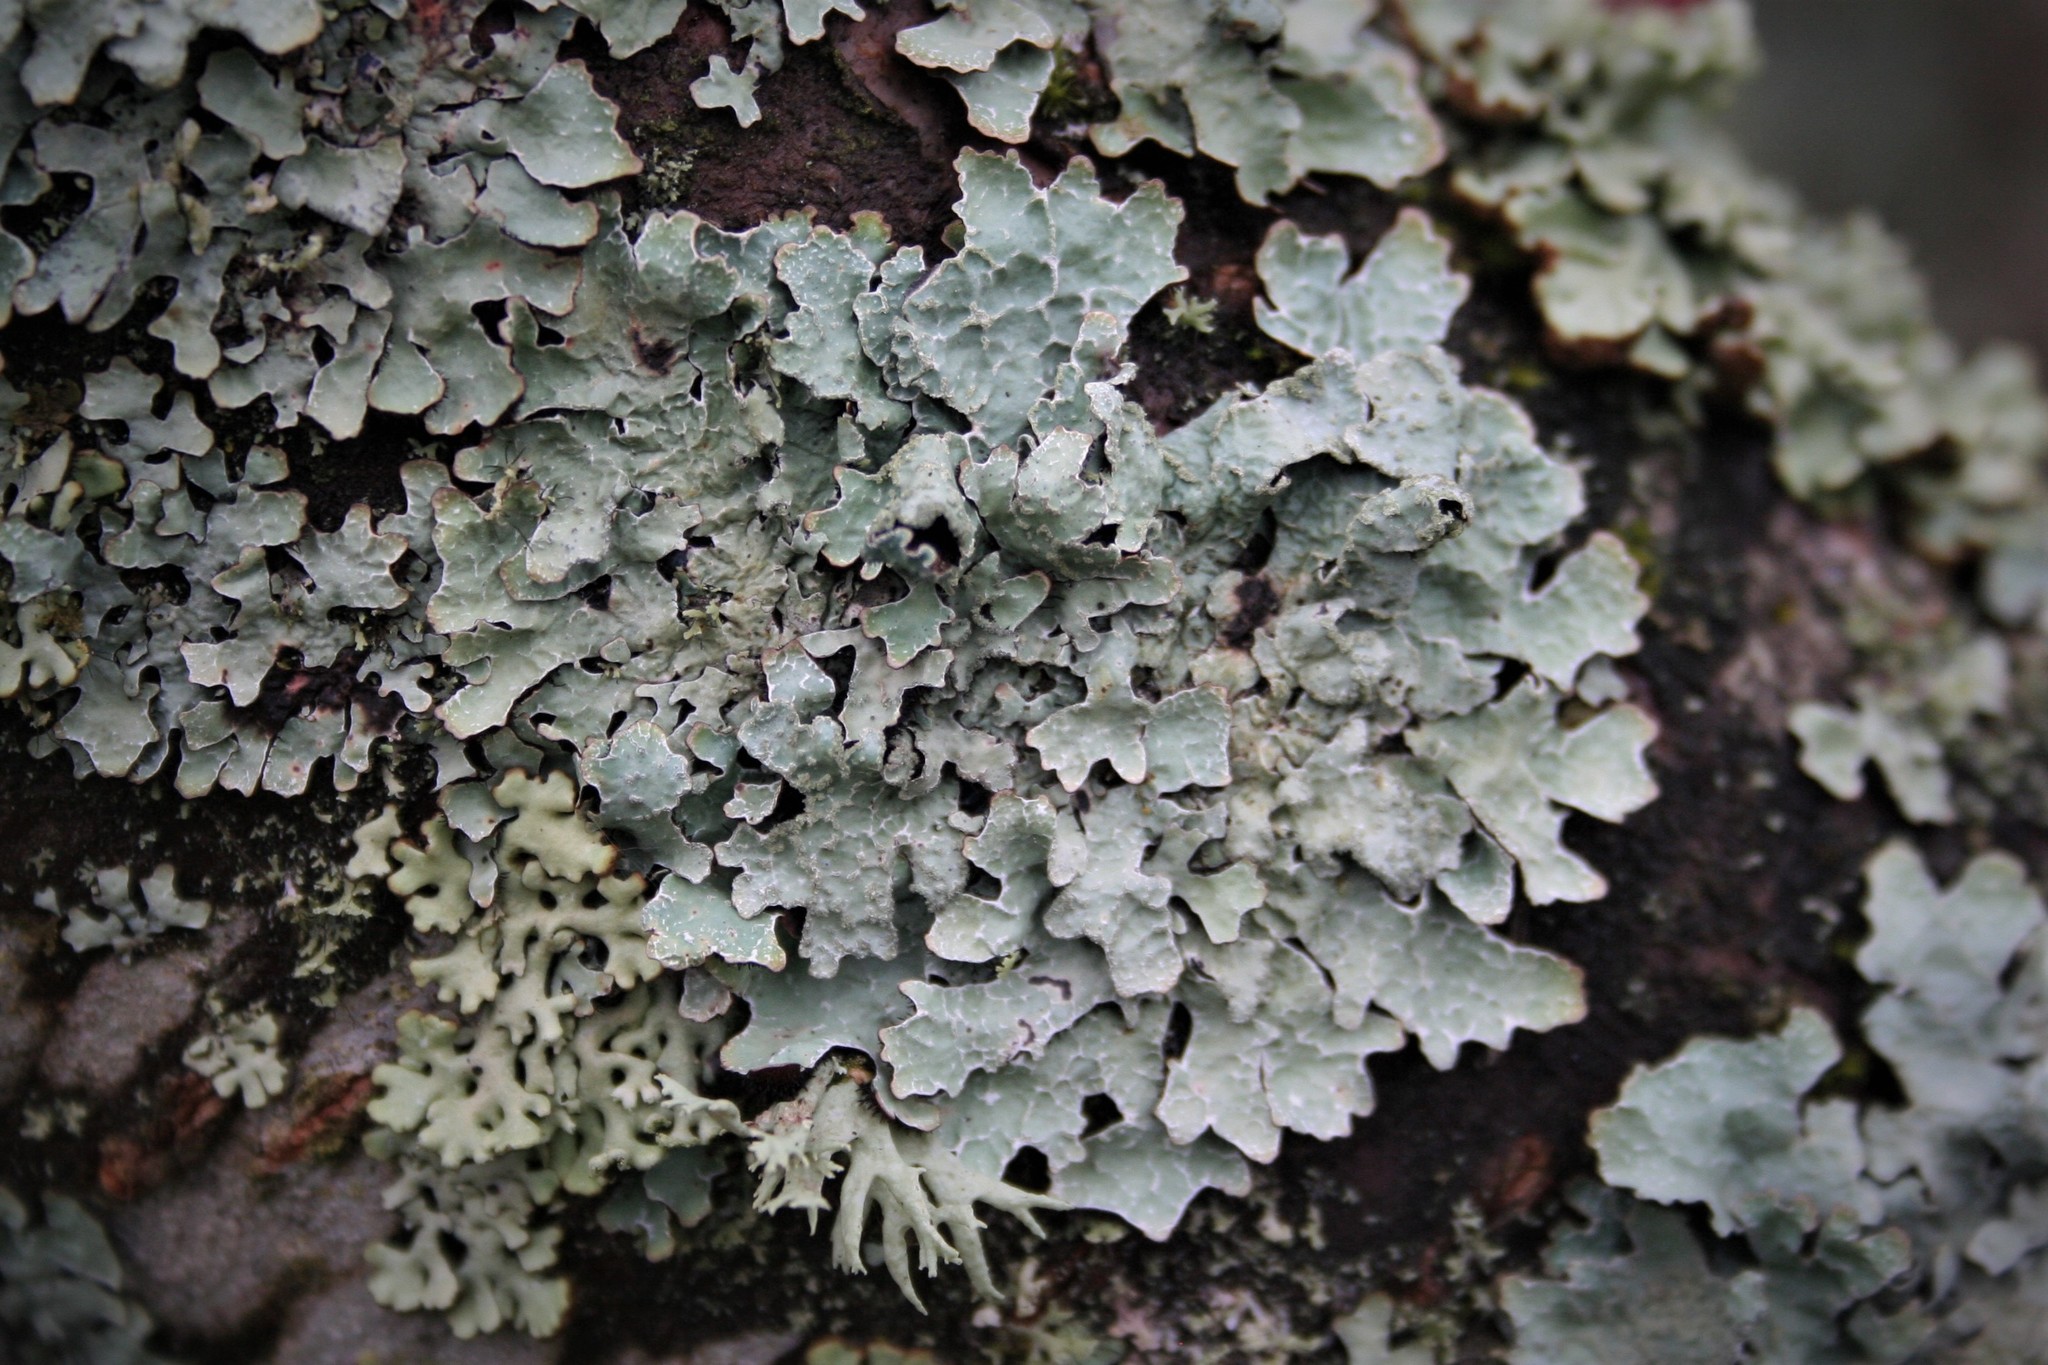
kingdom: Fungi
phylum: Ascomycota
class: Lecanoromycetes
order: Lecanorales
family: Parmeliaceae
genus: Parmelia
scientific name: Parmelia sulcata
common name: Netted shield lichen
